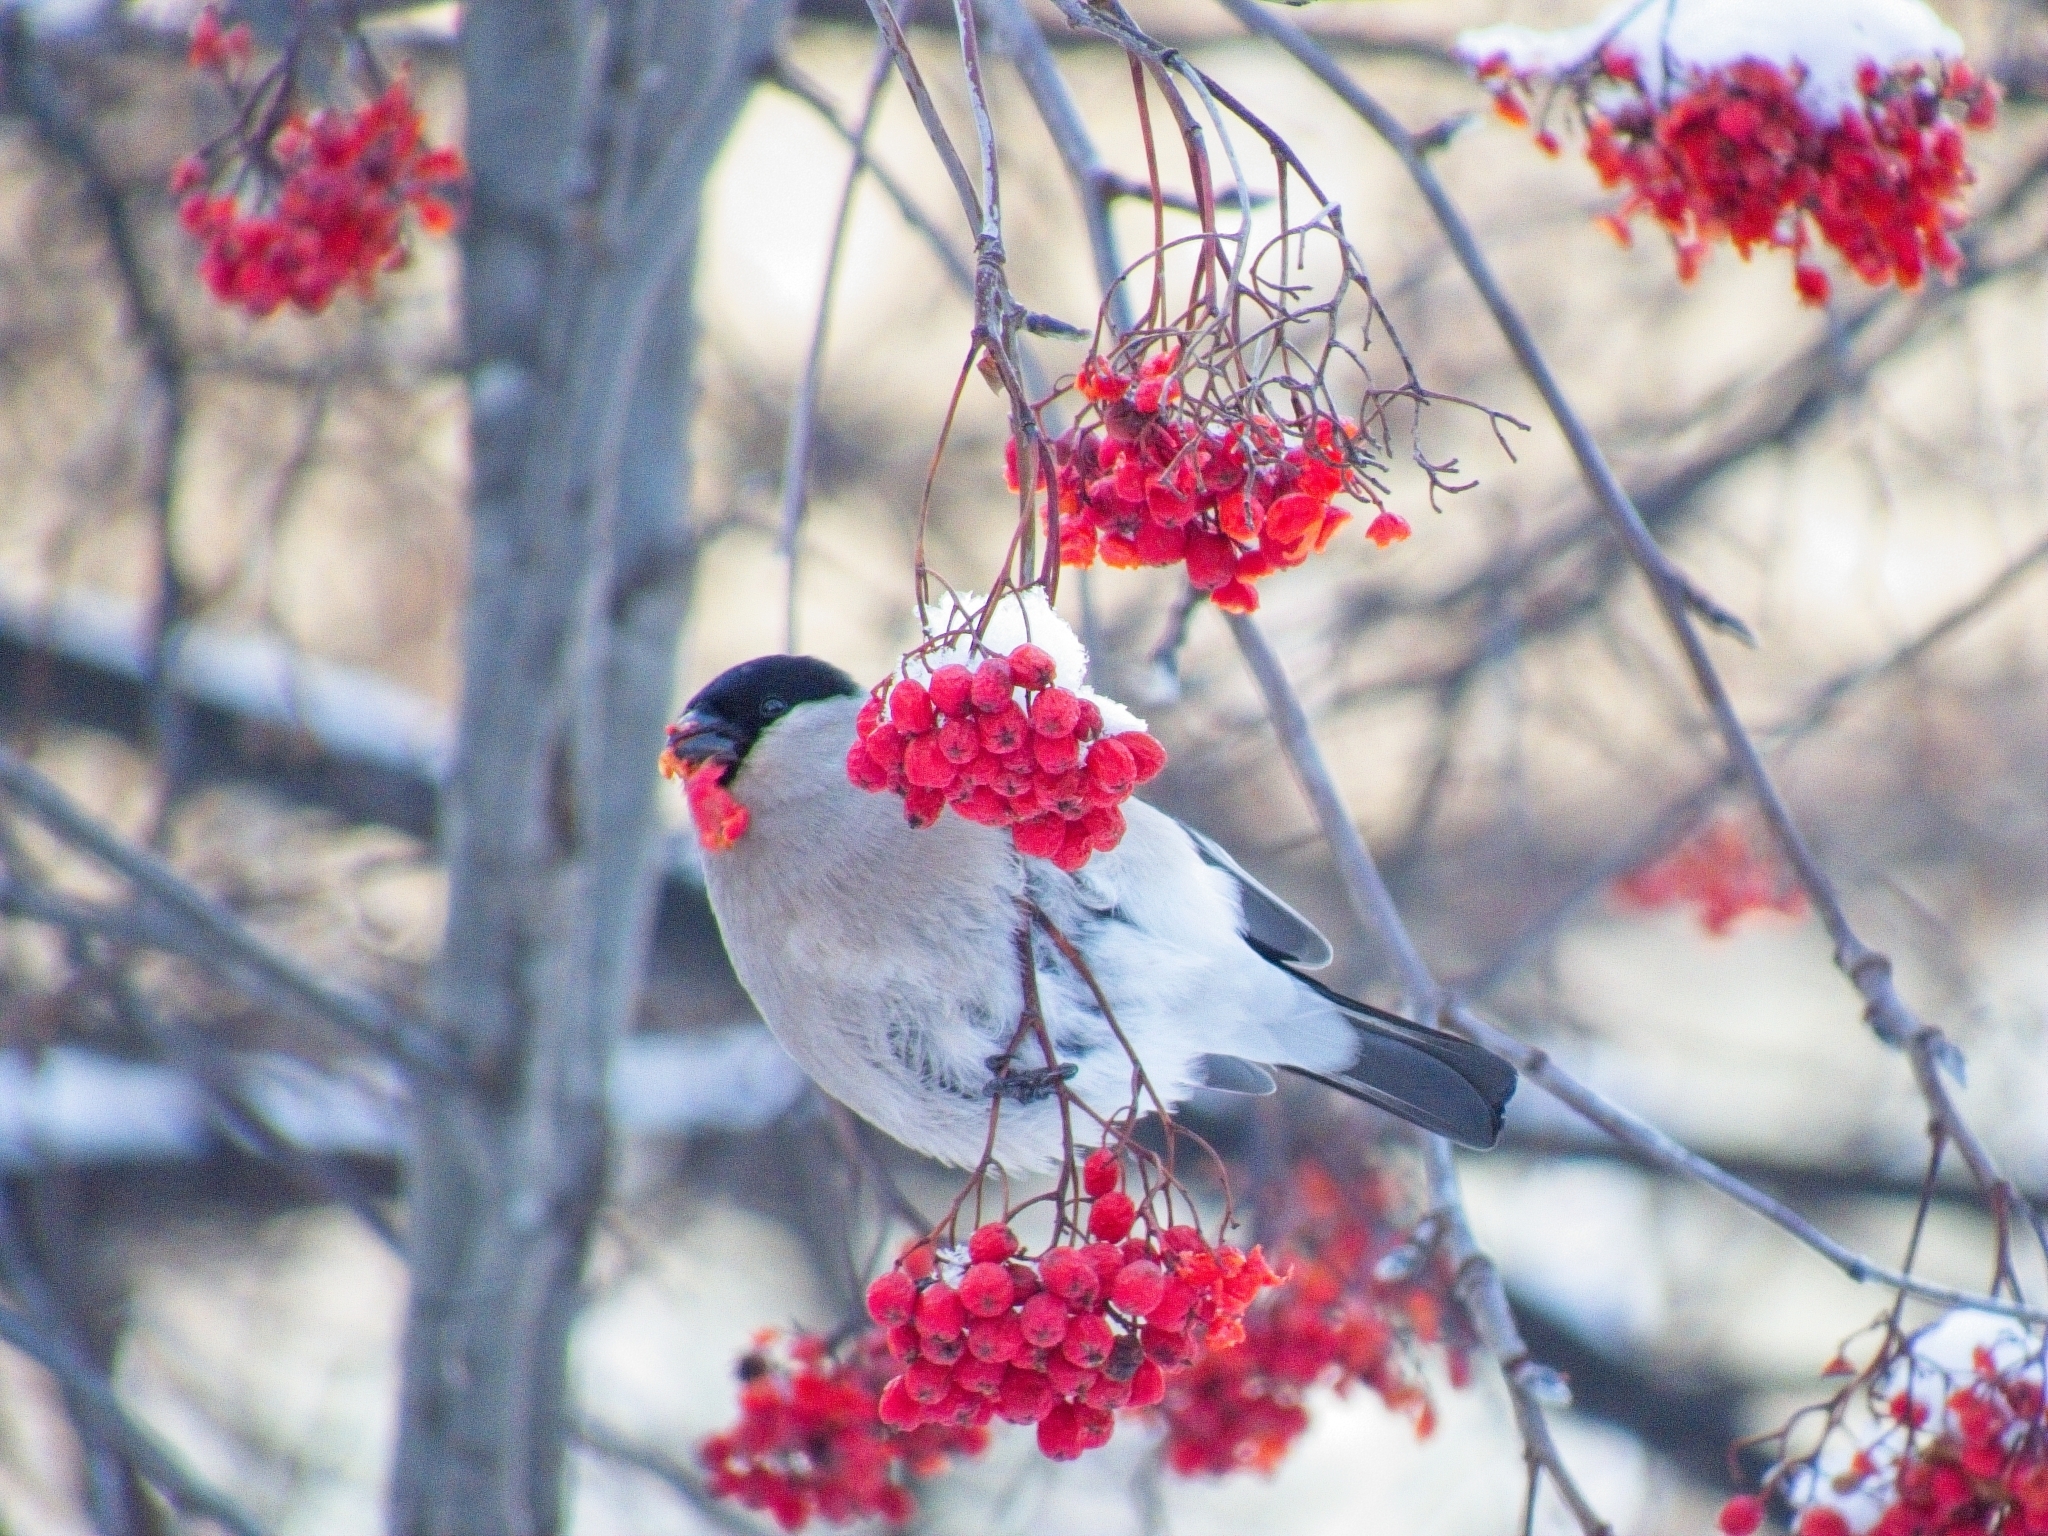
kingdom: Animalia
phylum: Chordata
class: Aves
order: Passeriformes
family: Fringillidae
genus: Pyrrhula
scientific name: Pyrrhula pyrrhula
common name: Eurasian bullfinch
